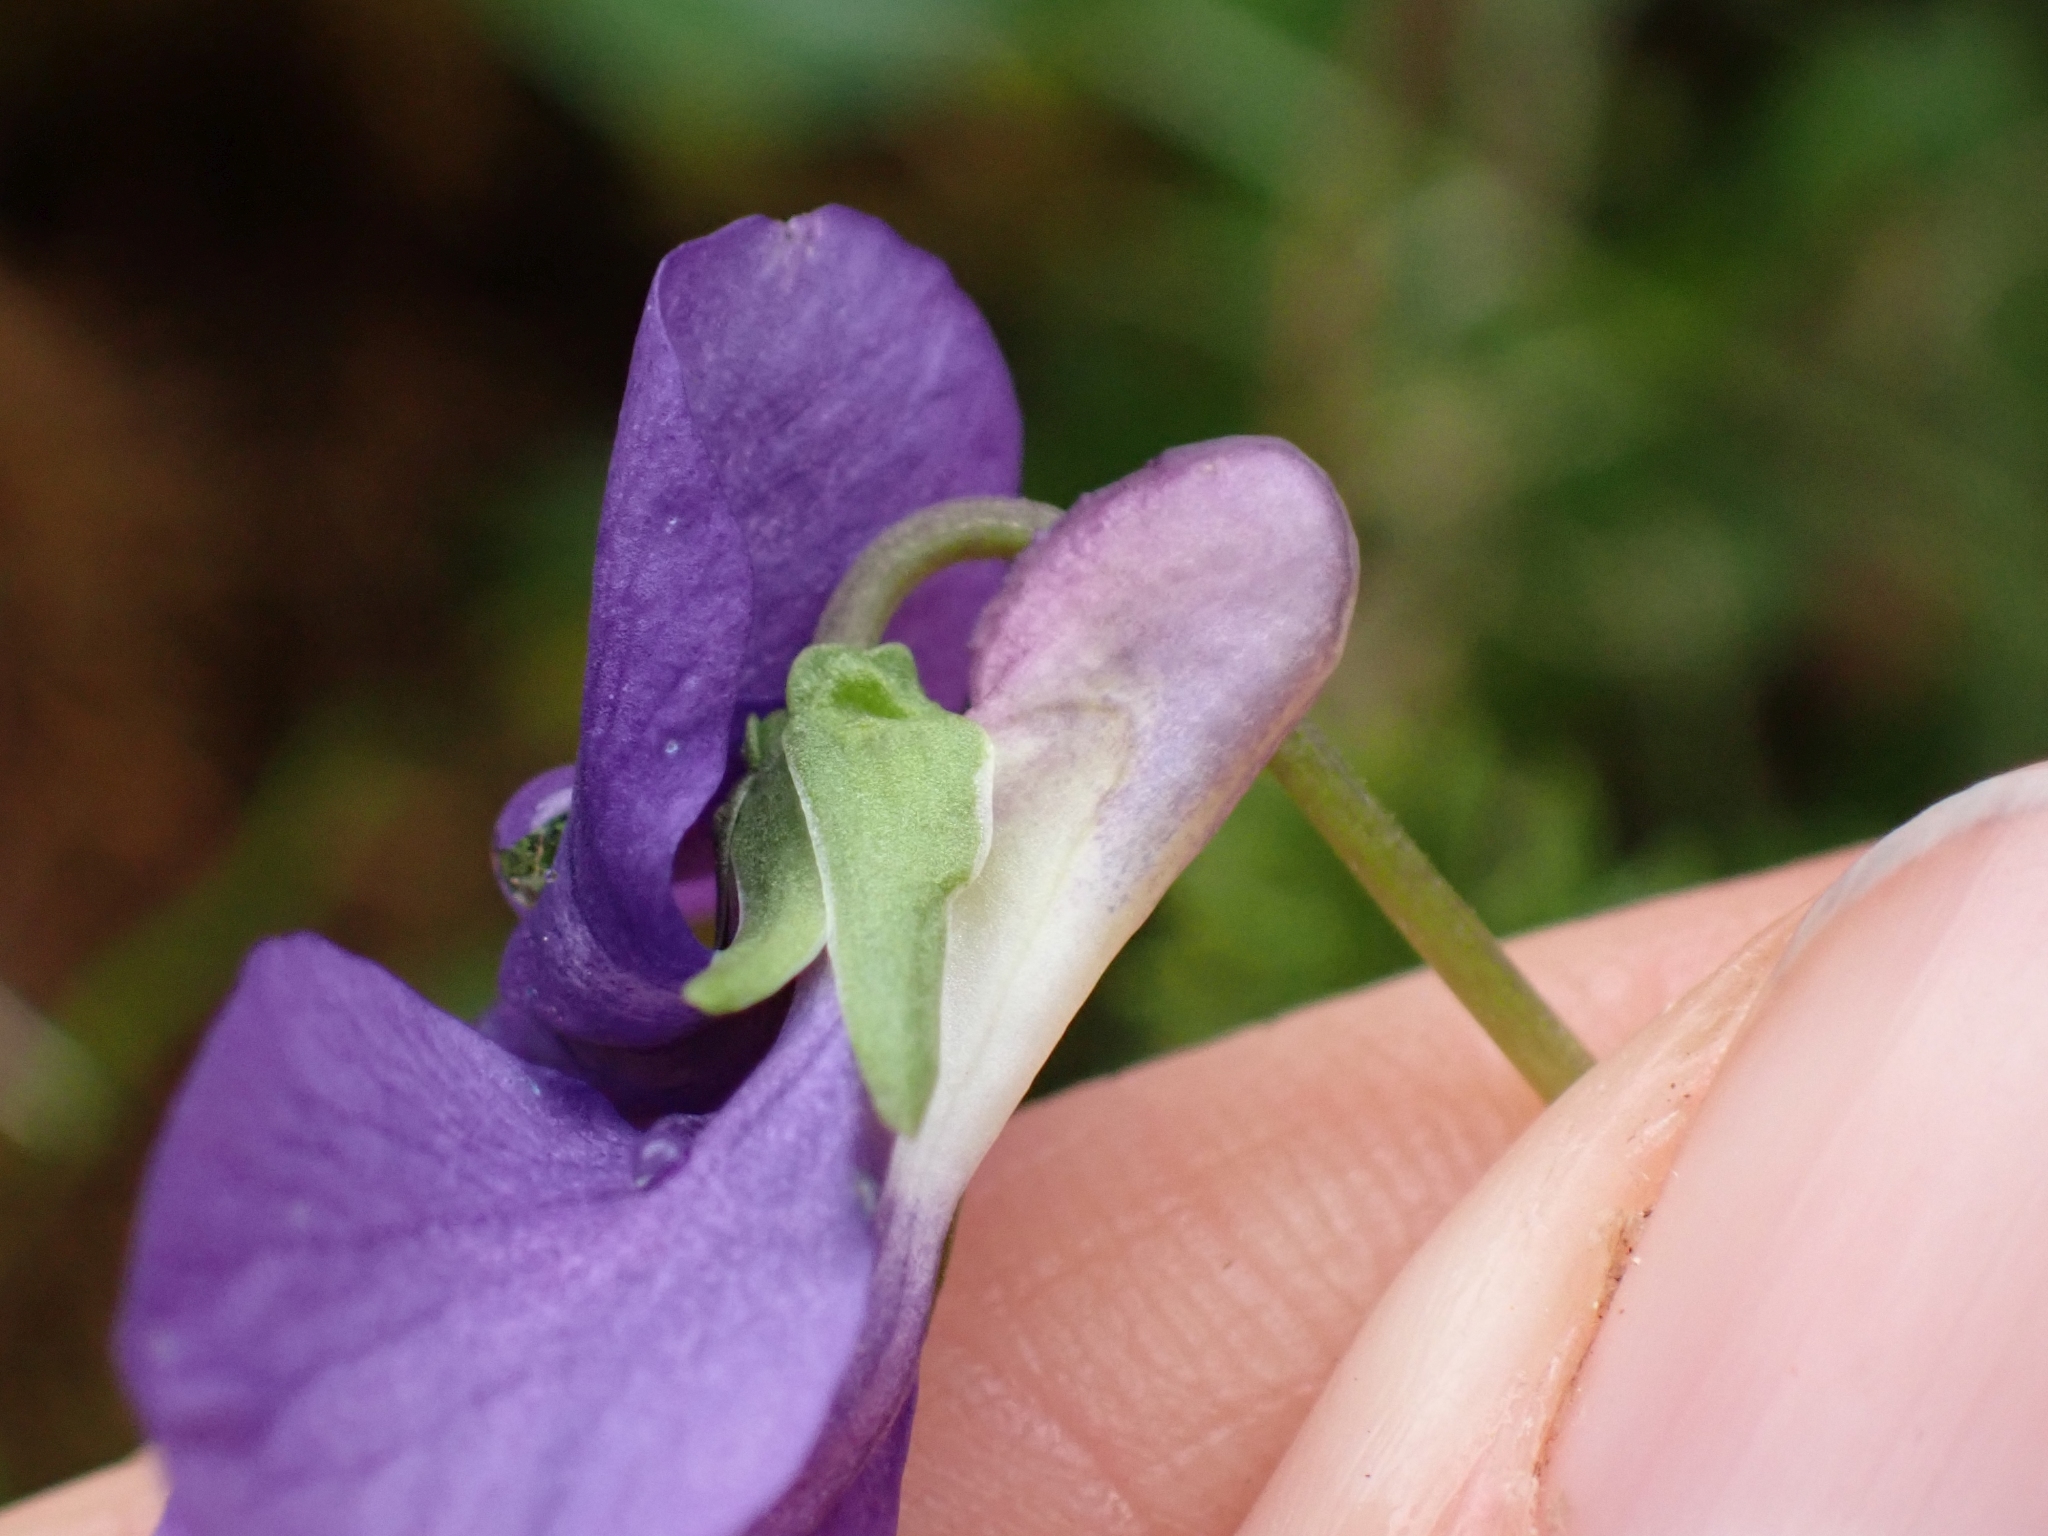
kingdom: Plantae
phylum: Tracheophyta
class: Magnoliopsida
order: Malpighiales
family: Violaceae
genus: Viola
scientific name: Viola adunca
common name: Sand violet
